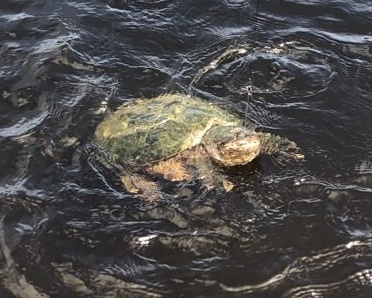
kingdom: Animalia
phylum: Chordata
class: Testudines
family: Chelydridae
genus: Chelydra
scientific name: Chelydra serpentina
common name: Common snapping turtle
